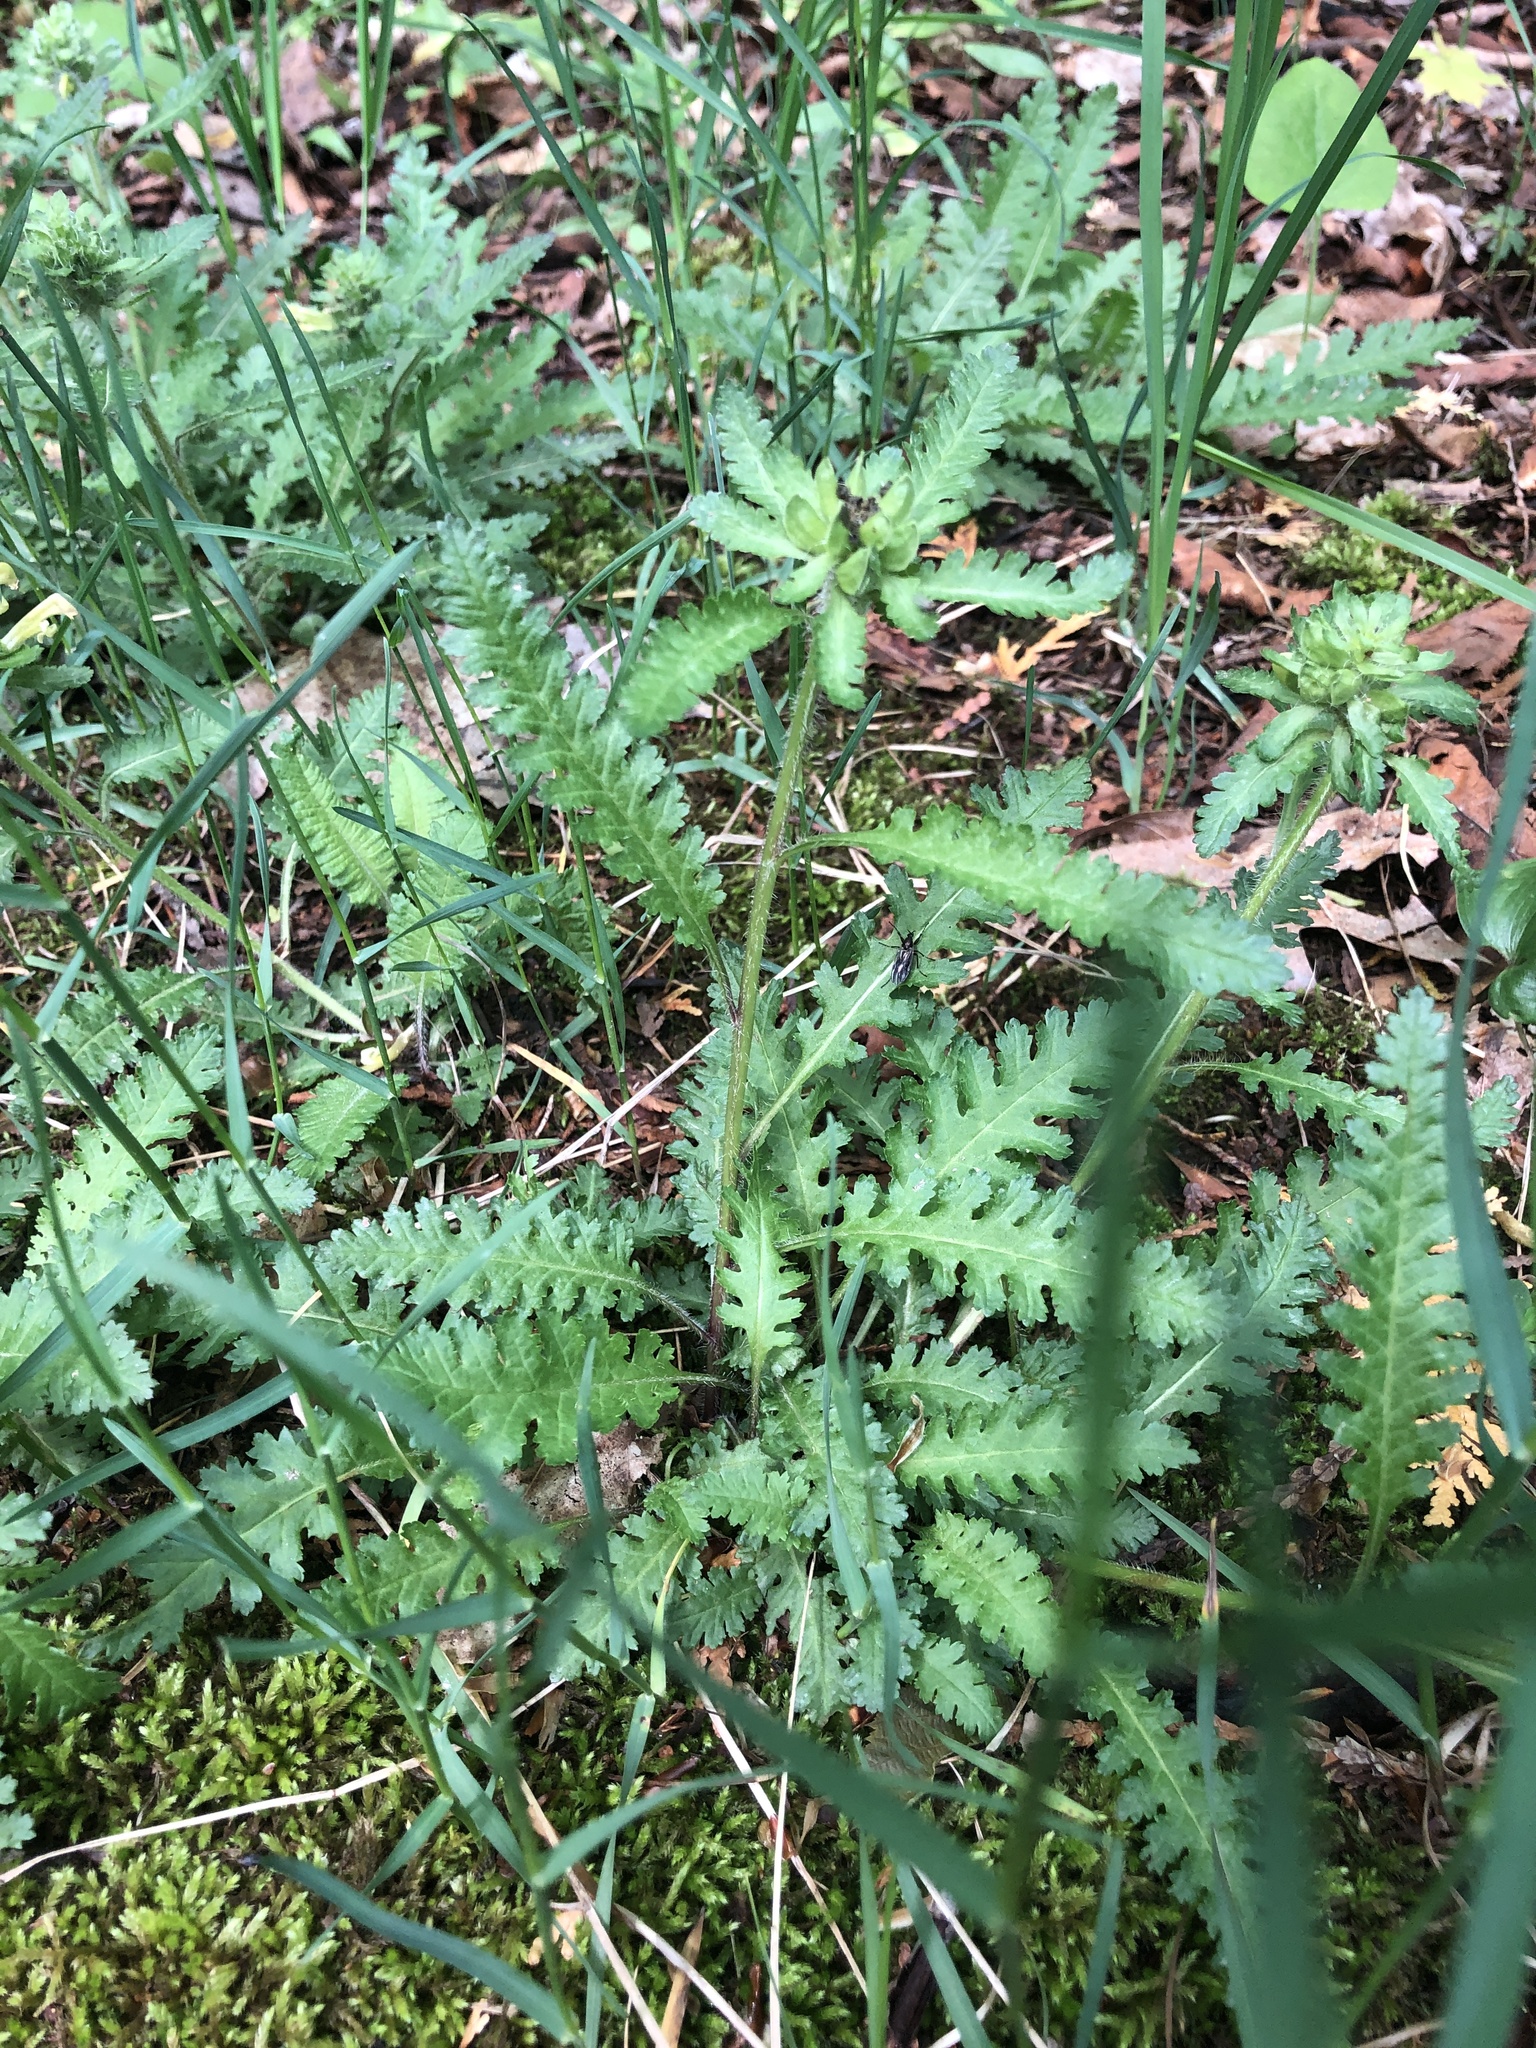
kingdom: Plantae
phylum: Tracheophyta
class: Magnoliopsida
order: Lamiales
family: Orobanchaceae
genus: Pedicularis
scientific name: Pedicularis canadensis
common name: Early lousewort
